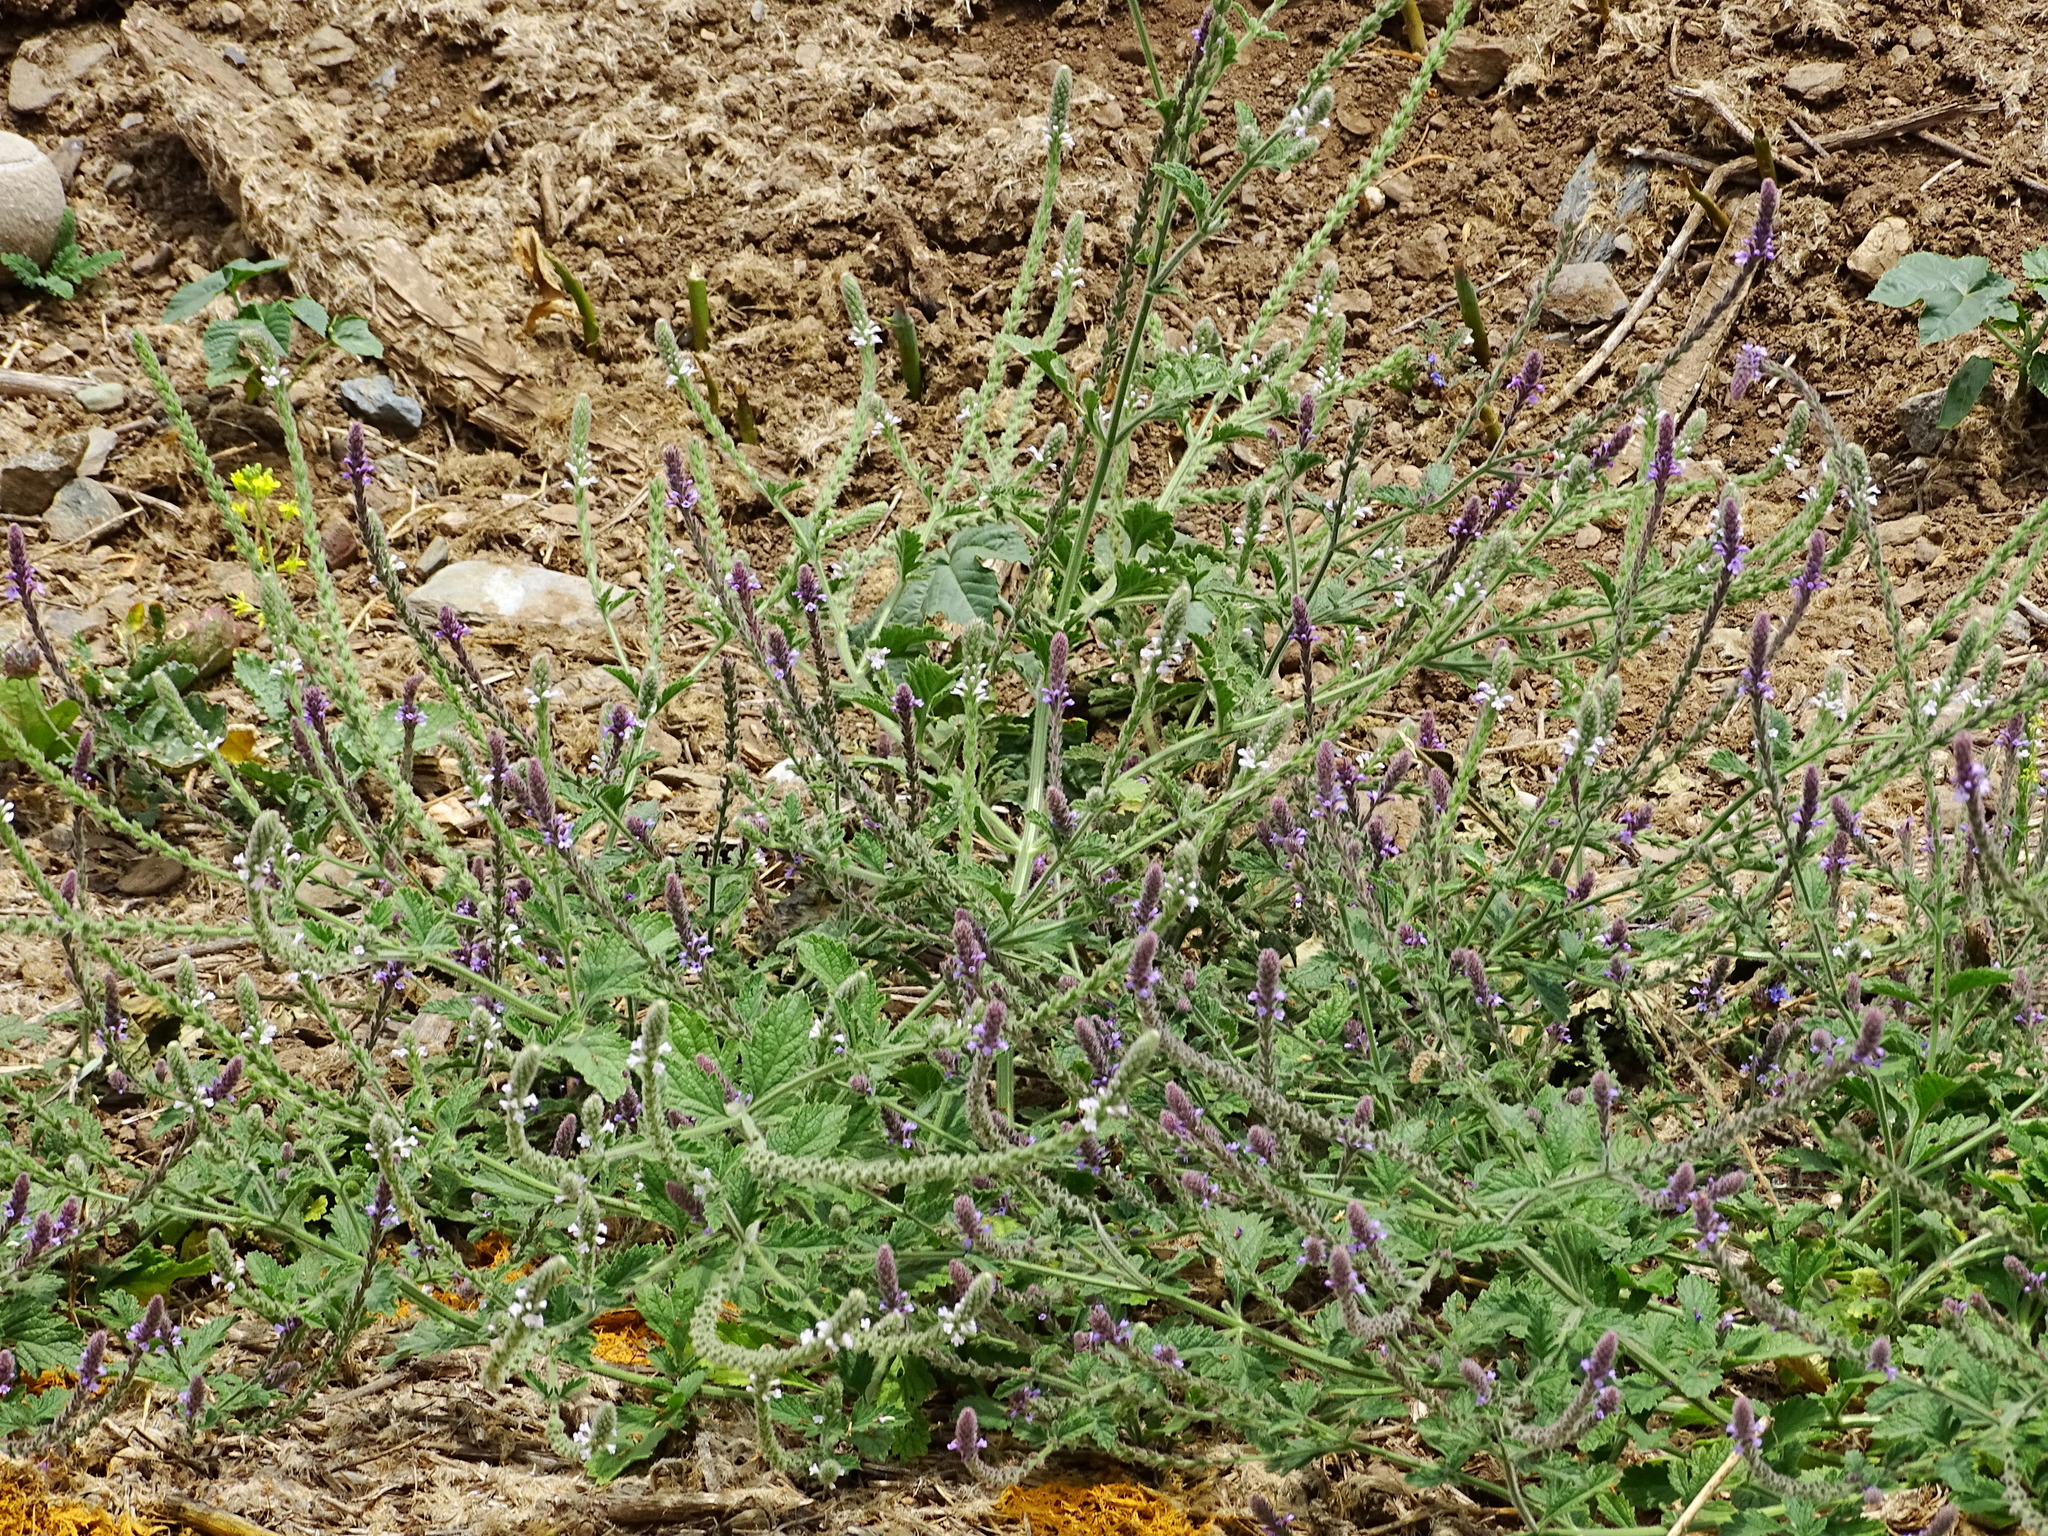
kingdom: Plantae
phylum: Tracheophyta
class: Magnoliopsida
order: Lamiales
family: Verbenaceae
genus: Verbena
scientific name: Verbena lasiostachys
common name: Vervain
